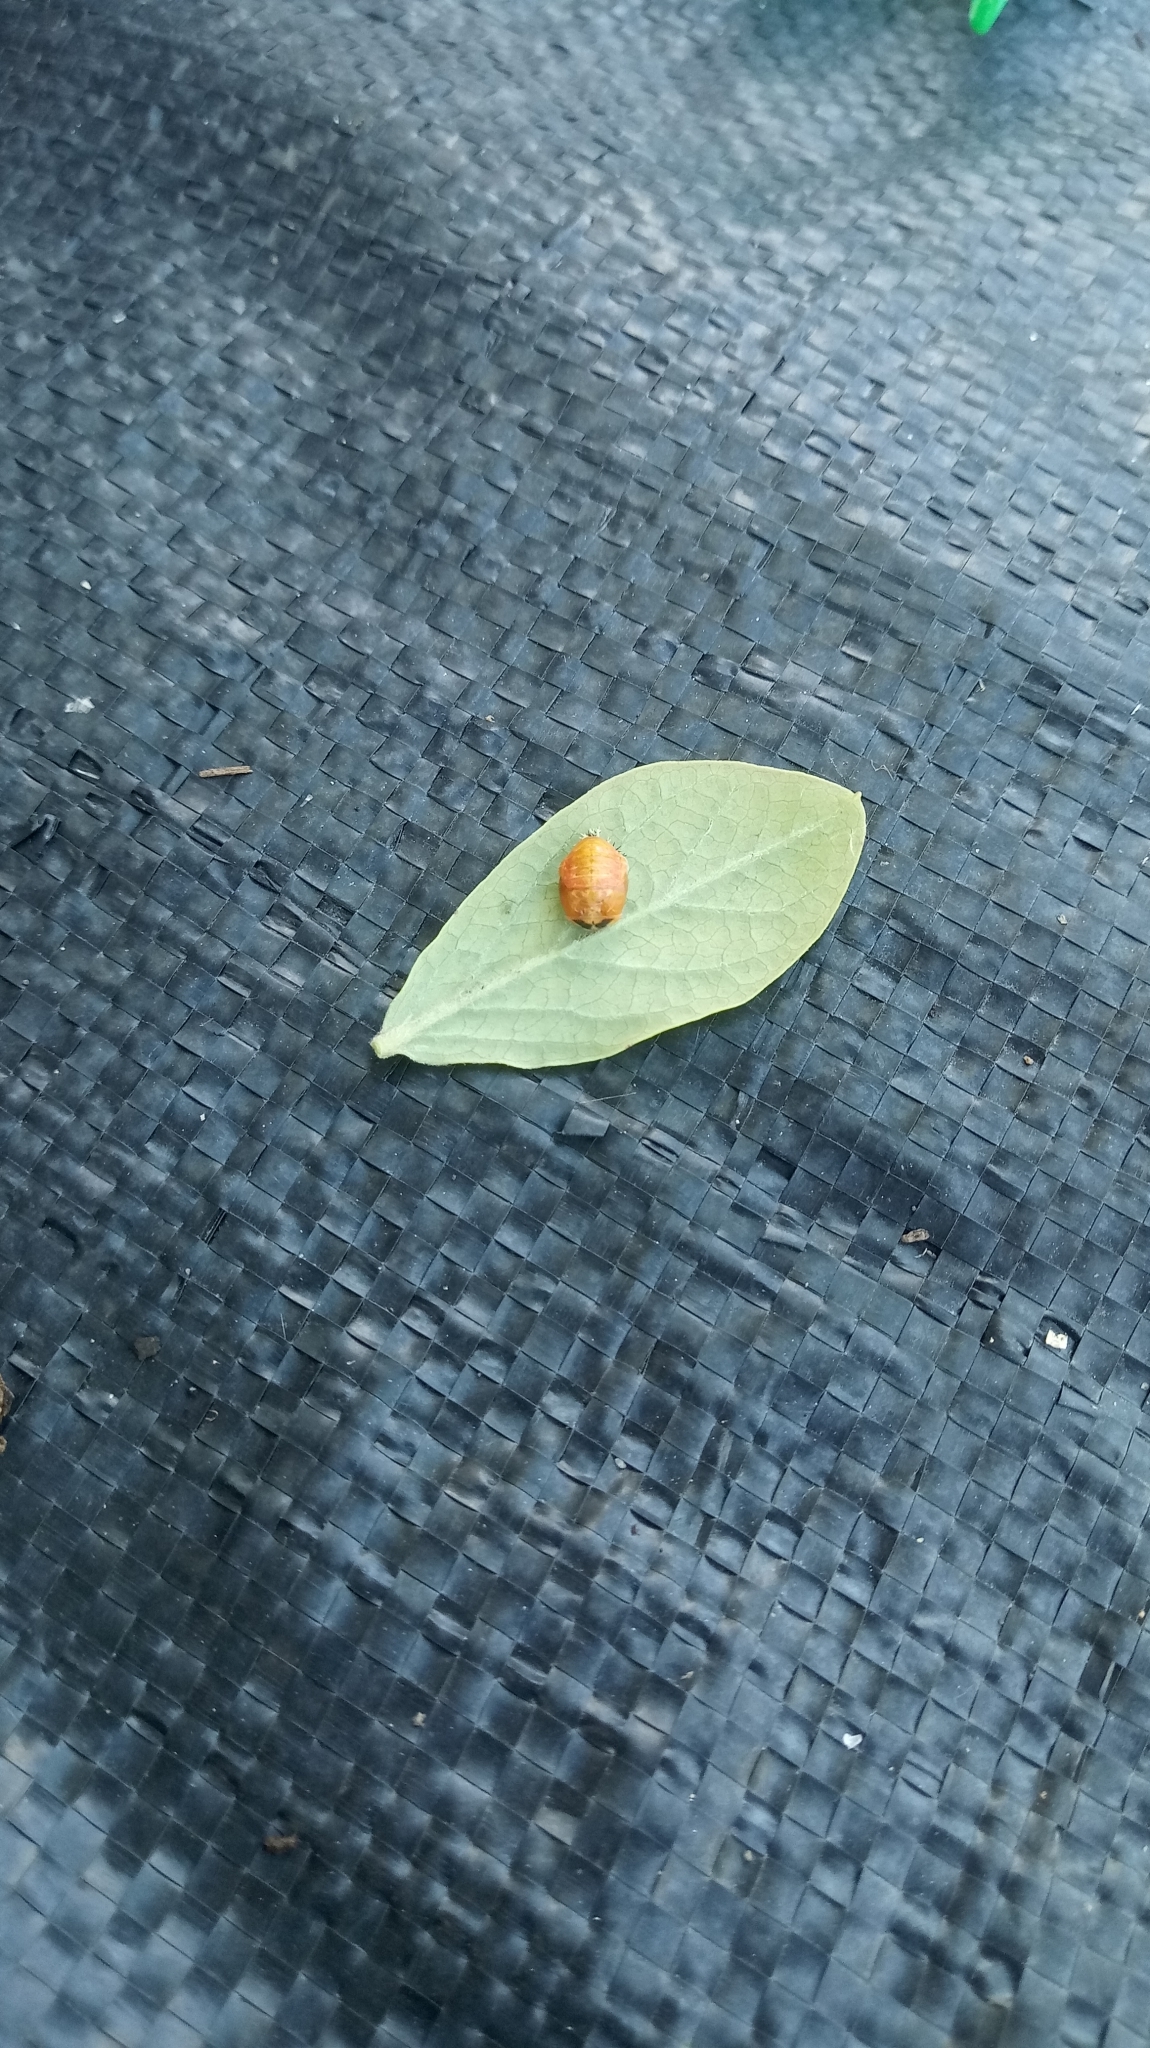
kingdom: Animalia
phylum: Arthropoda
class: Insecta
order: Coleoptera
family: Coccinellidae
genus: Harmonia
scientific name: Harmonia axyridis
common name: Harlequin ladybird
